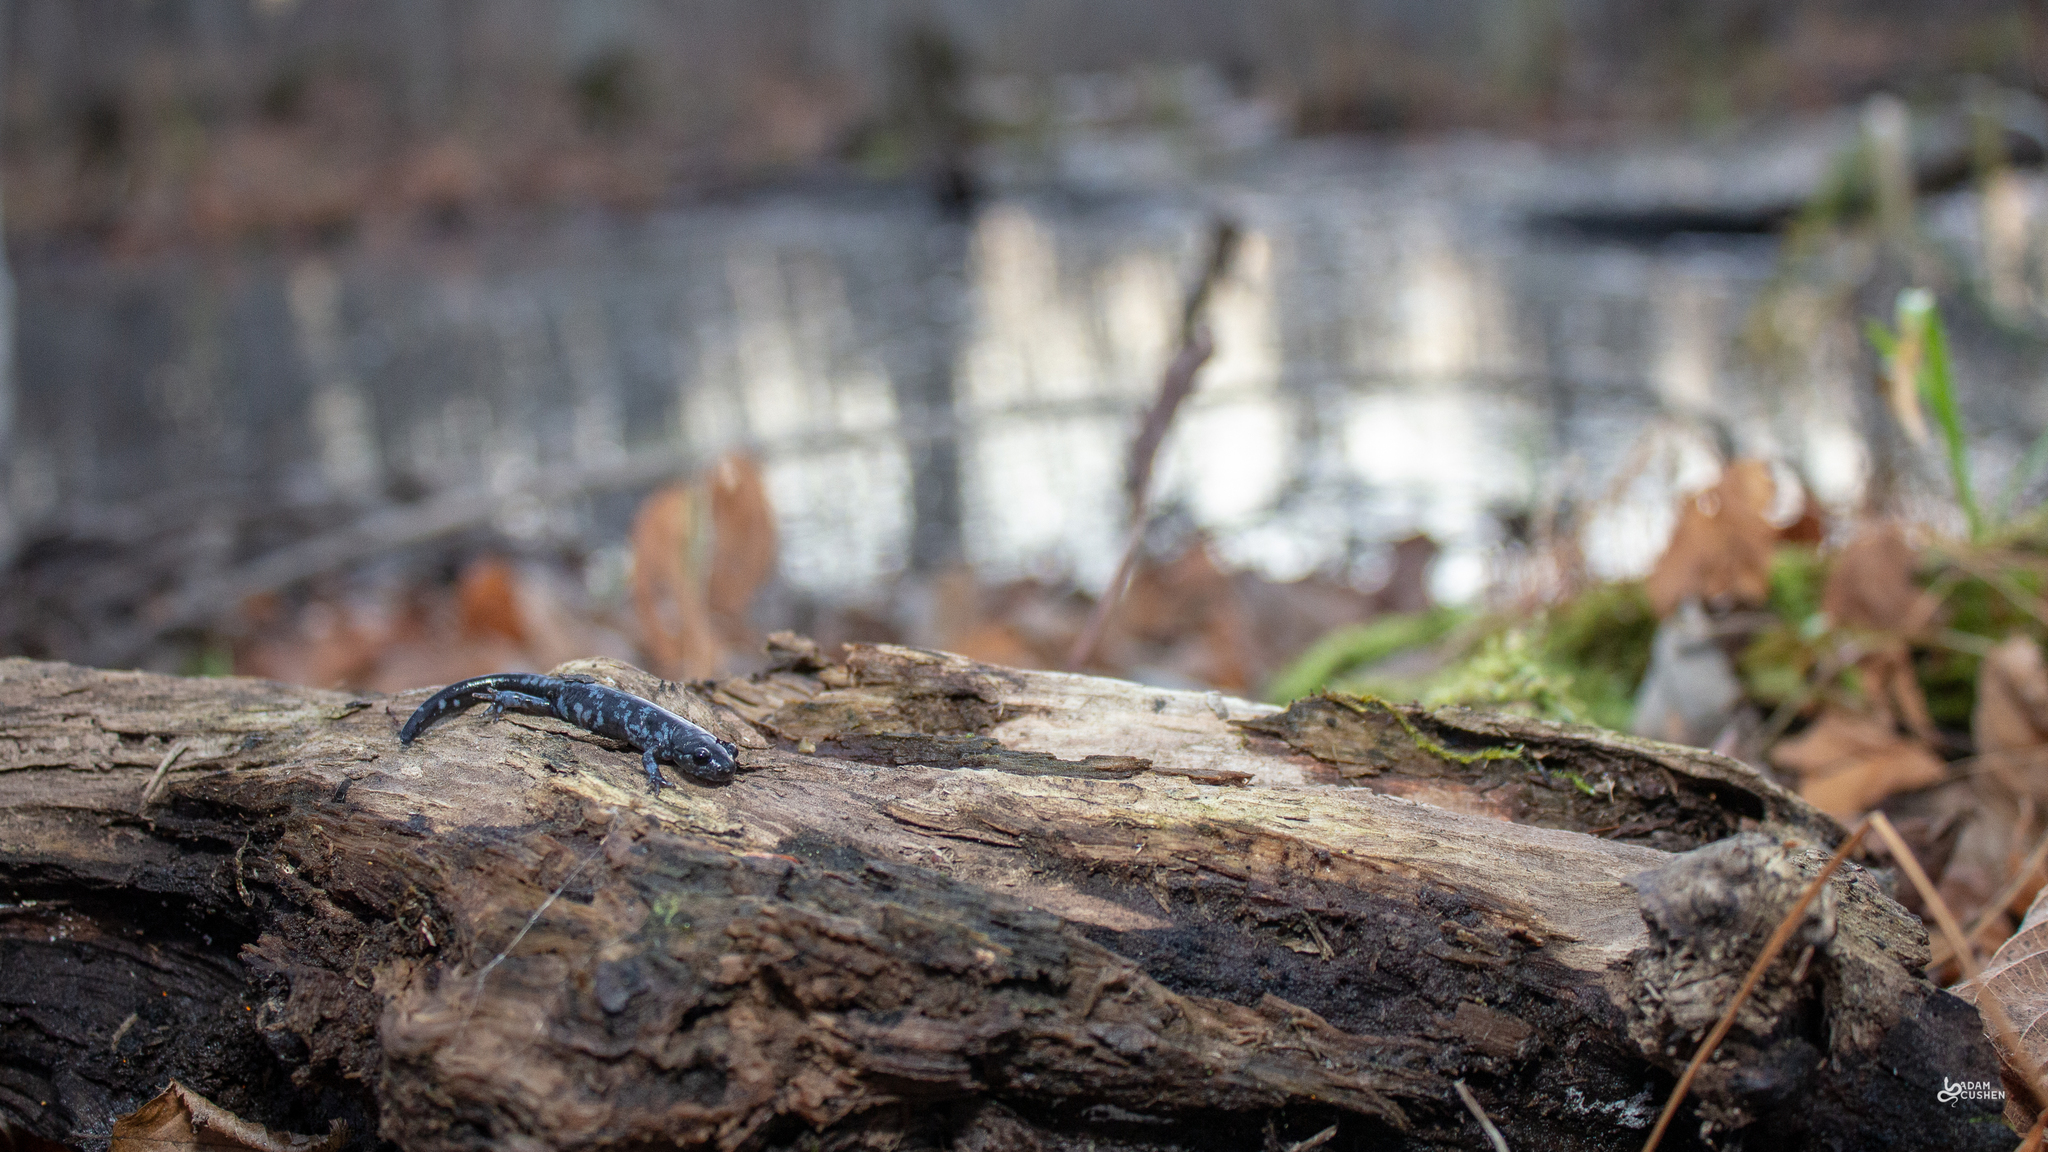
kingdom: Animalia
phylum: Chordata
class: Amphibia
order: Caudata
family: Ambystomatidae
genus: Ambystoma
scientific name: Ambystoma laterale
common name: Blue-spotted salamander
